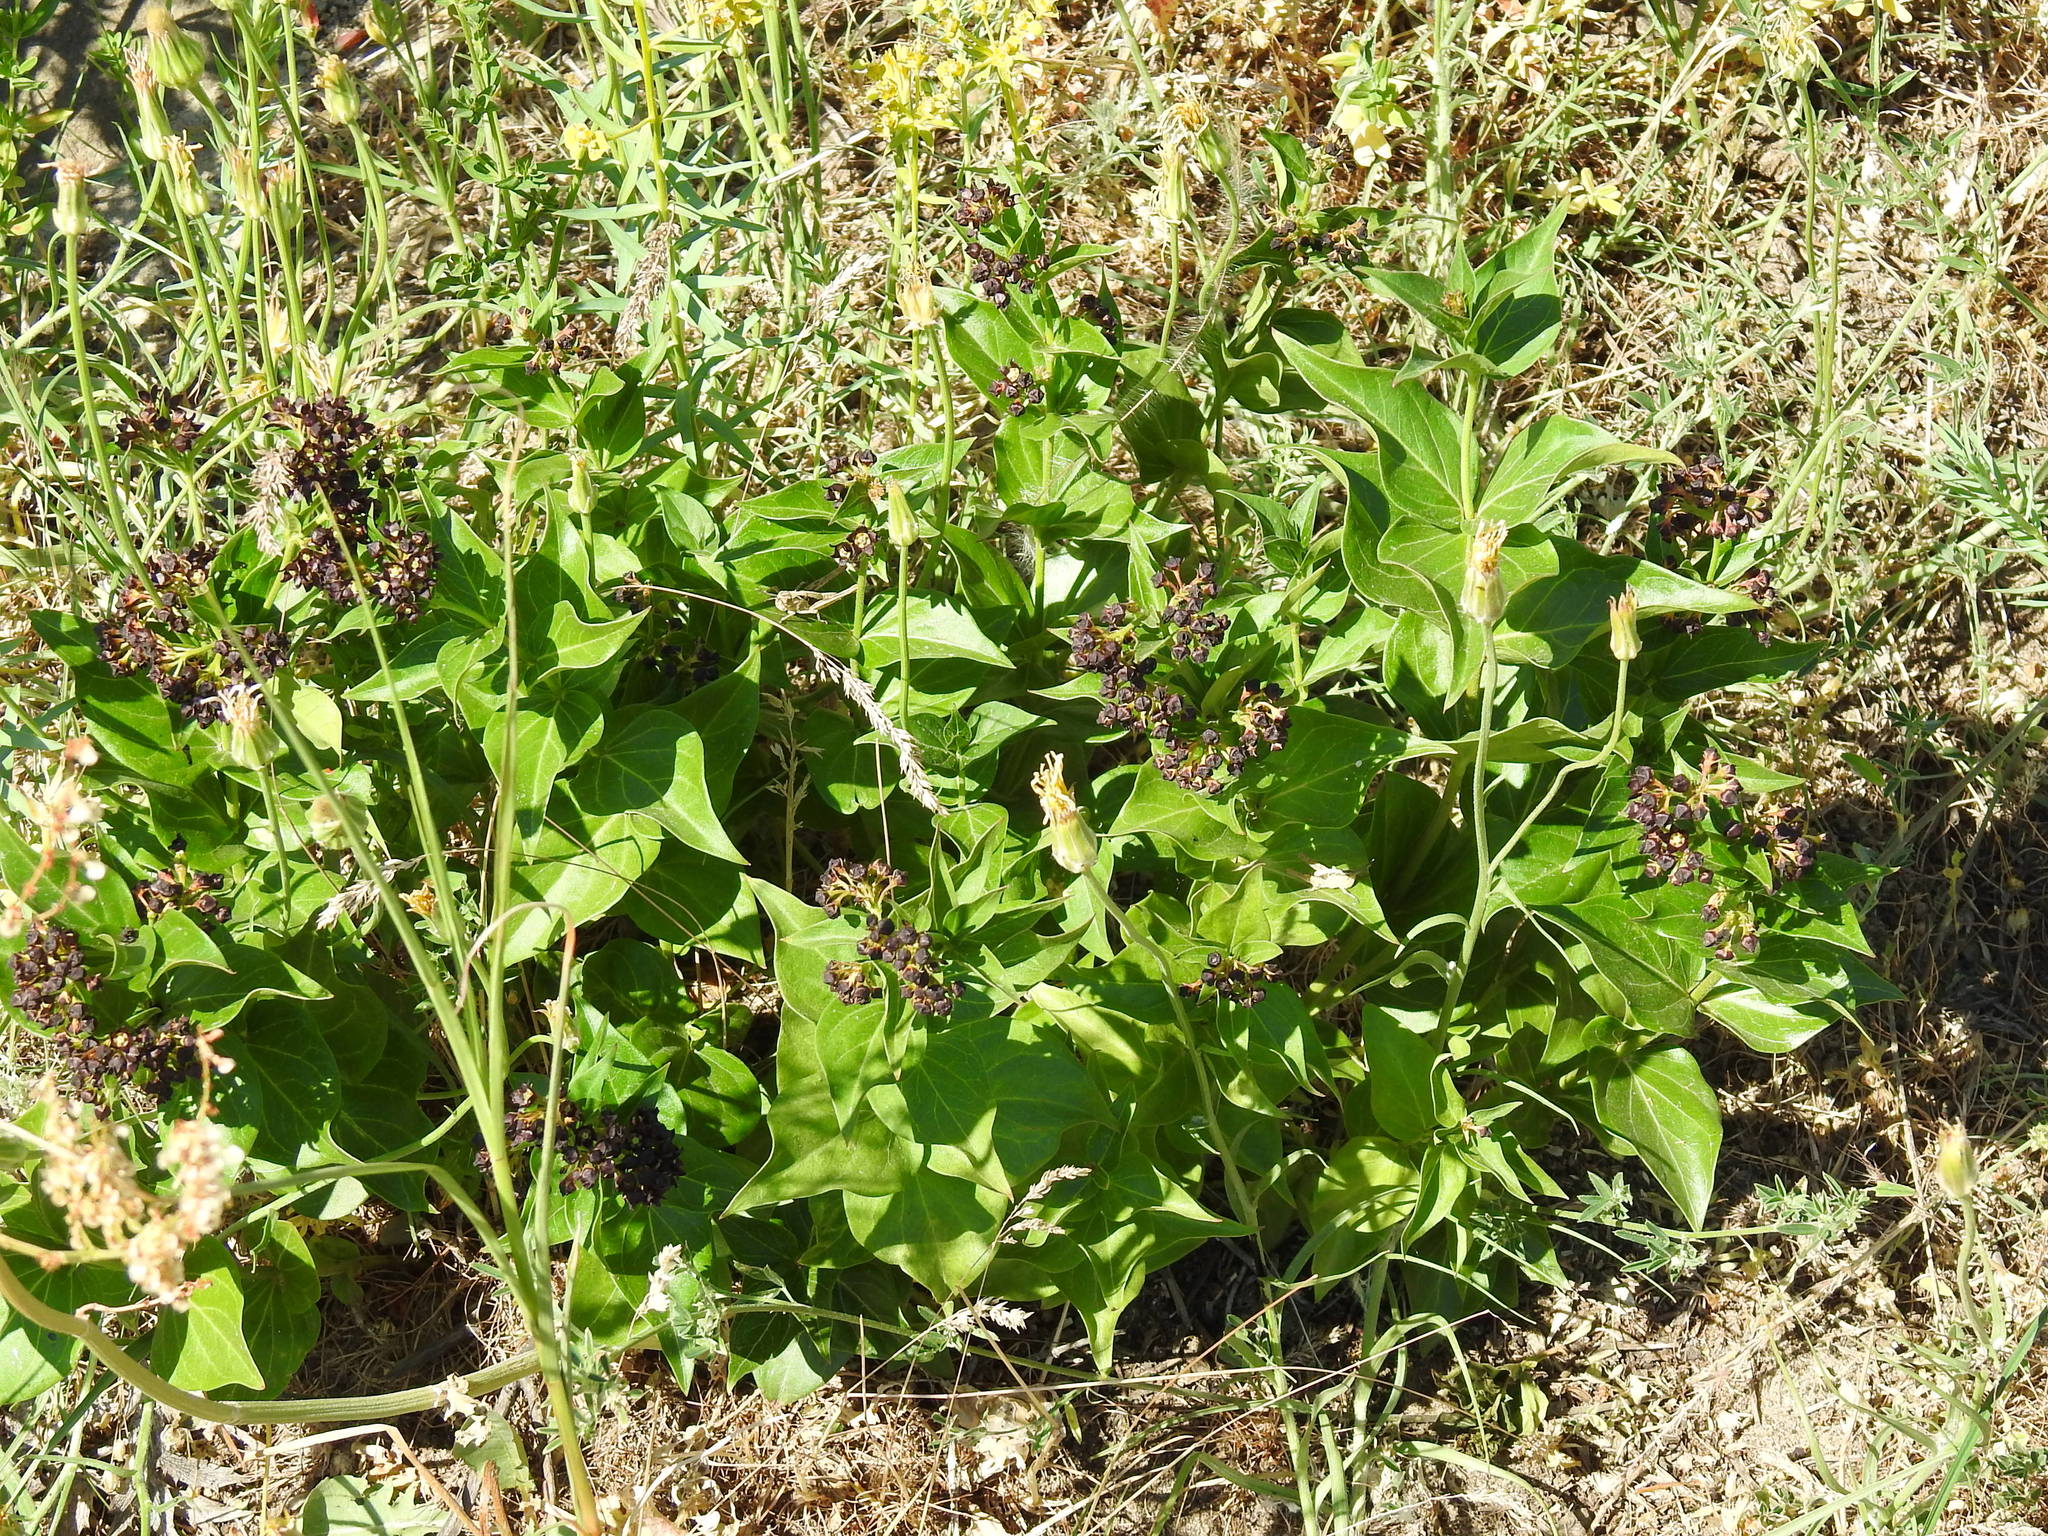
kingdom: Plantae
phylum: Tracheophyta
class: Magnoliopsida
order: Gentianales
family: Apocynaceae
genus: Vincetoxicum
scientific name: Vincetoxicum funebre
